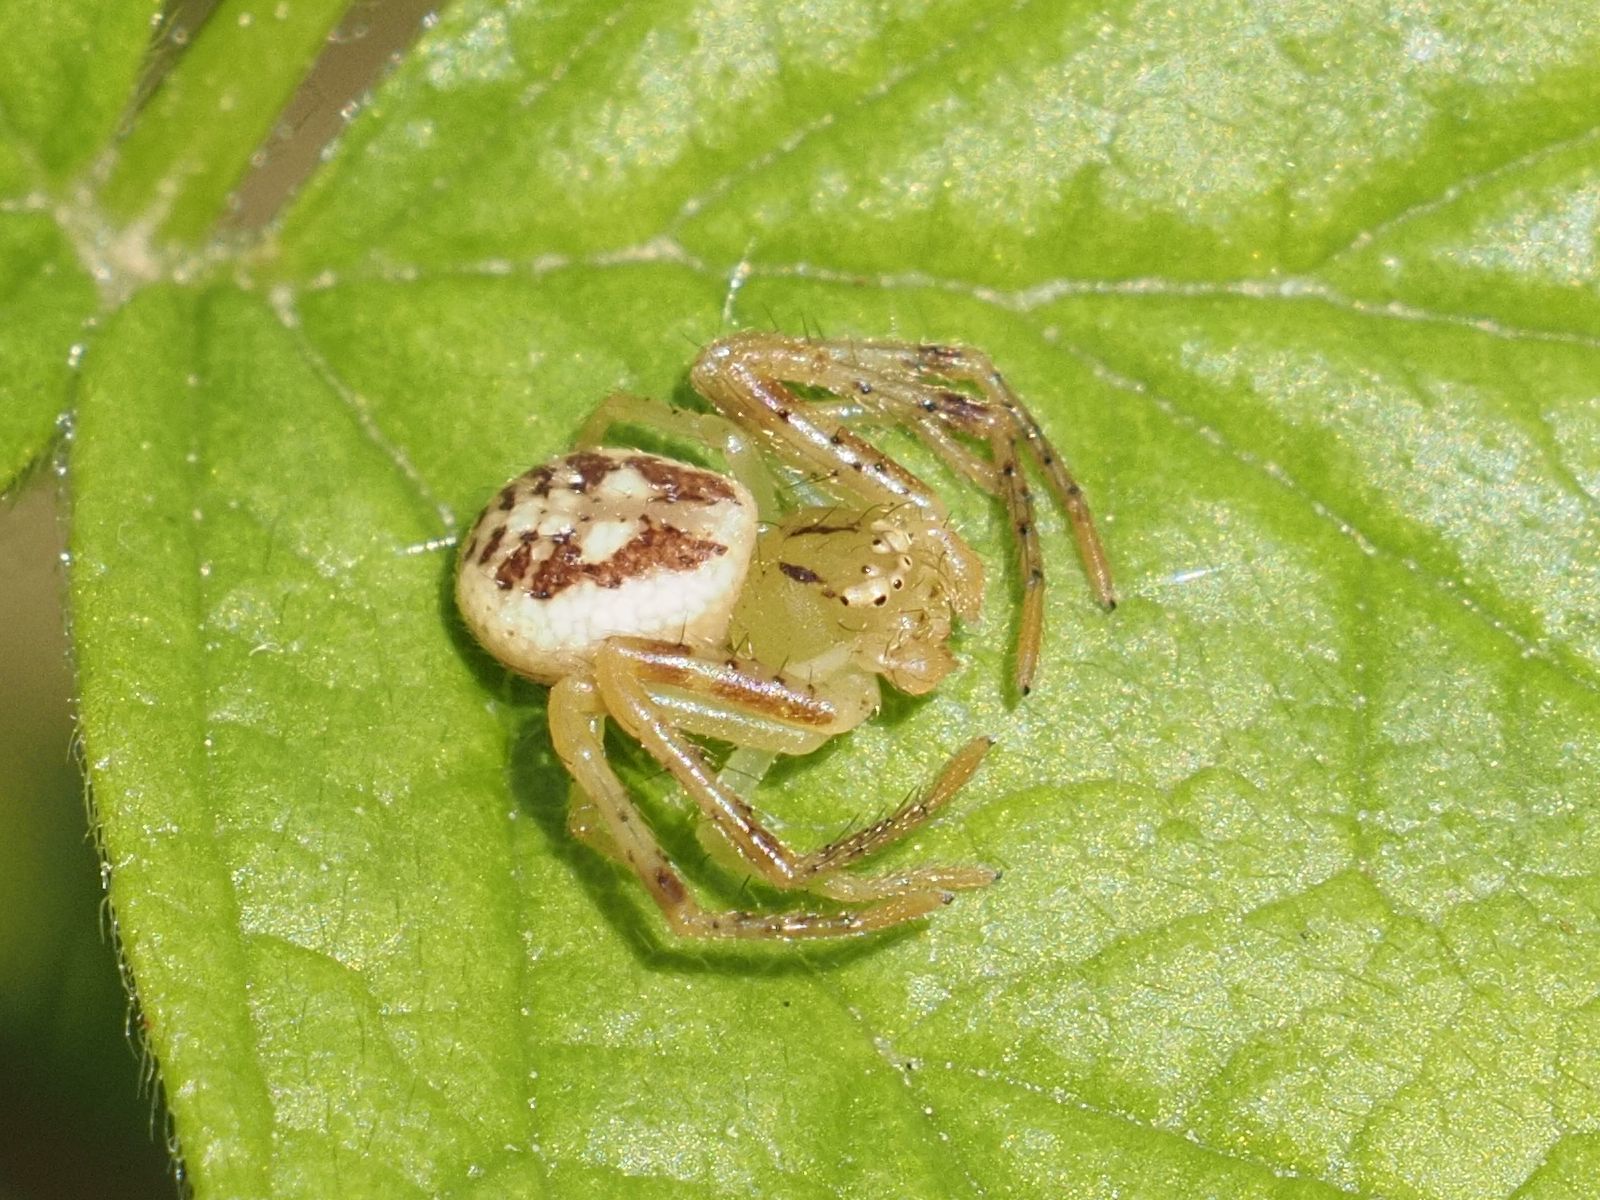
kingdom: Animalia
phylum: Arthropoda
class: Arachnida
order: Araneae
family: Thomisidae
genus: Diaea
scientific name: Diaea livens
